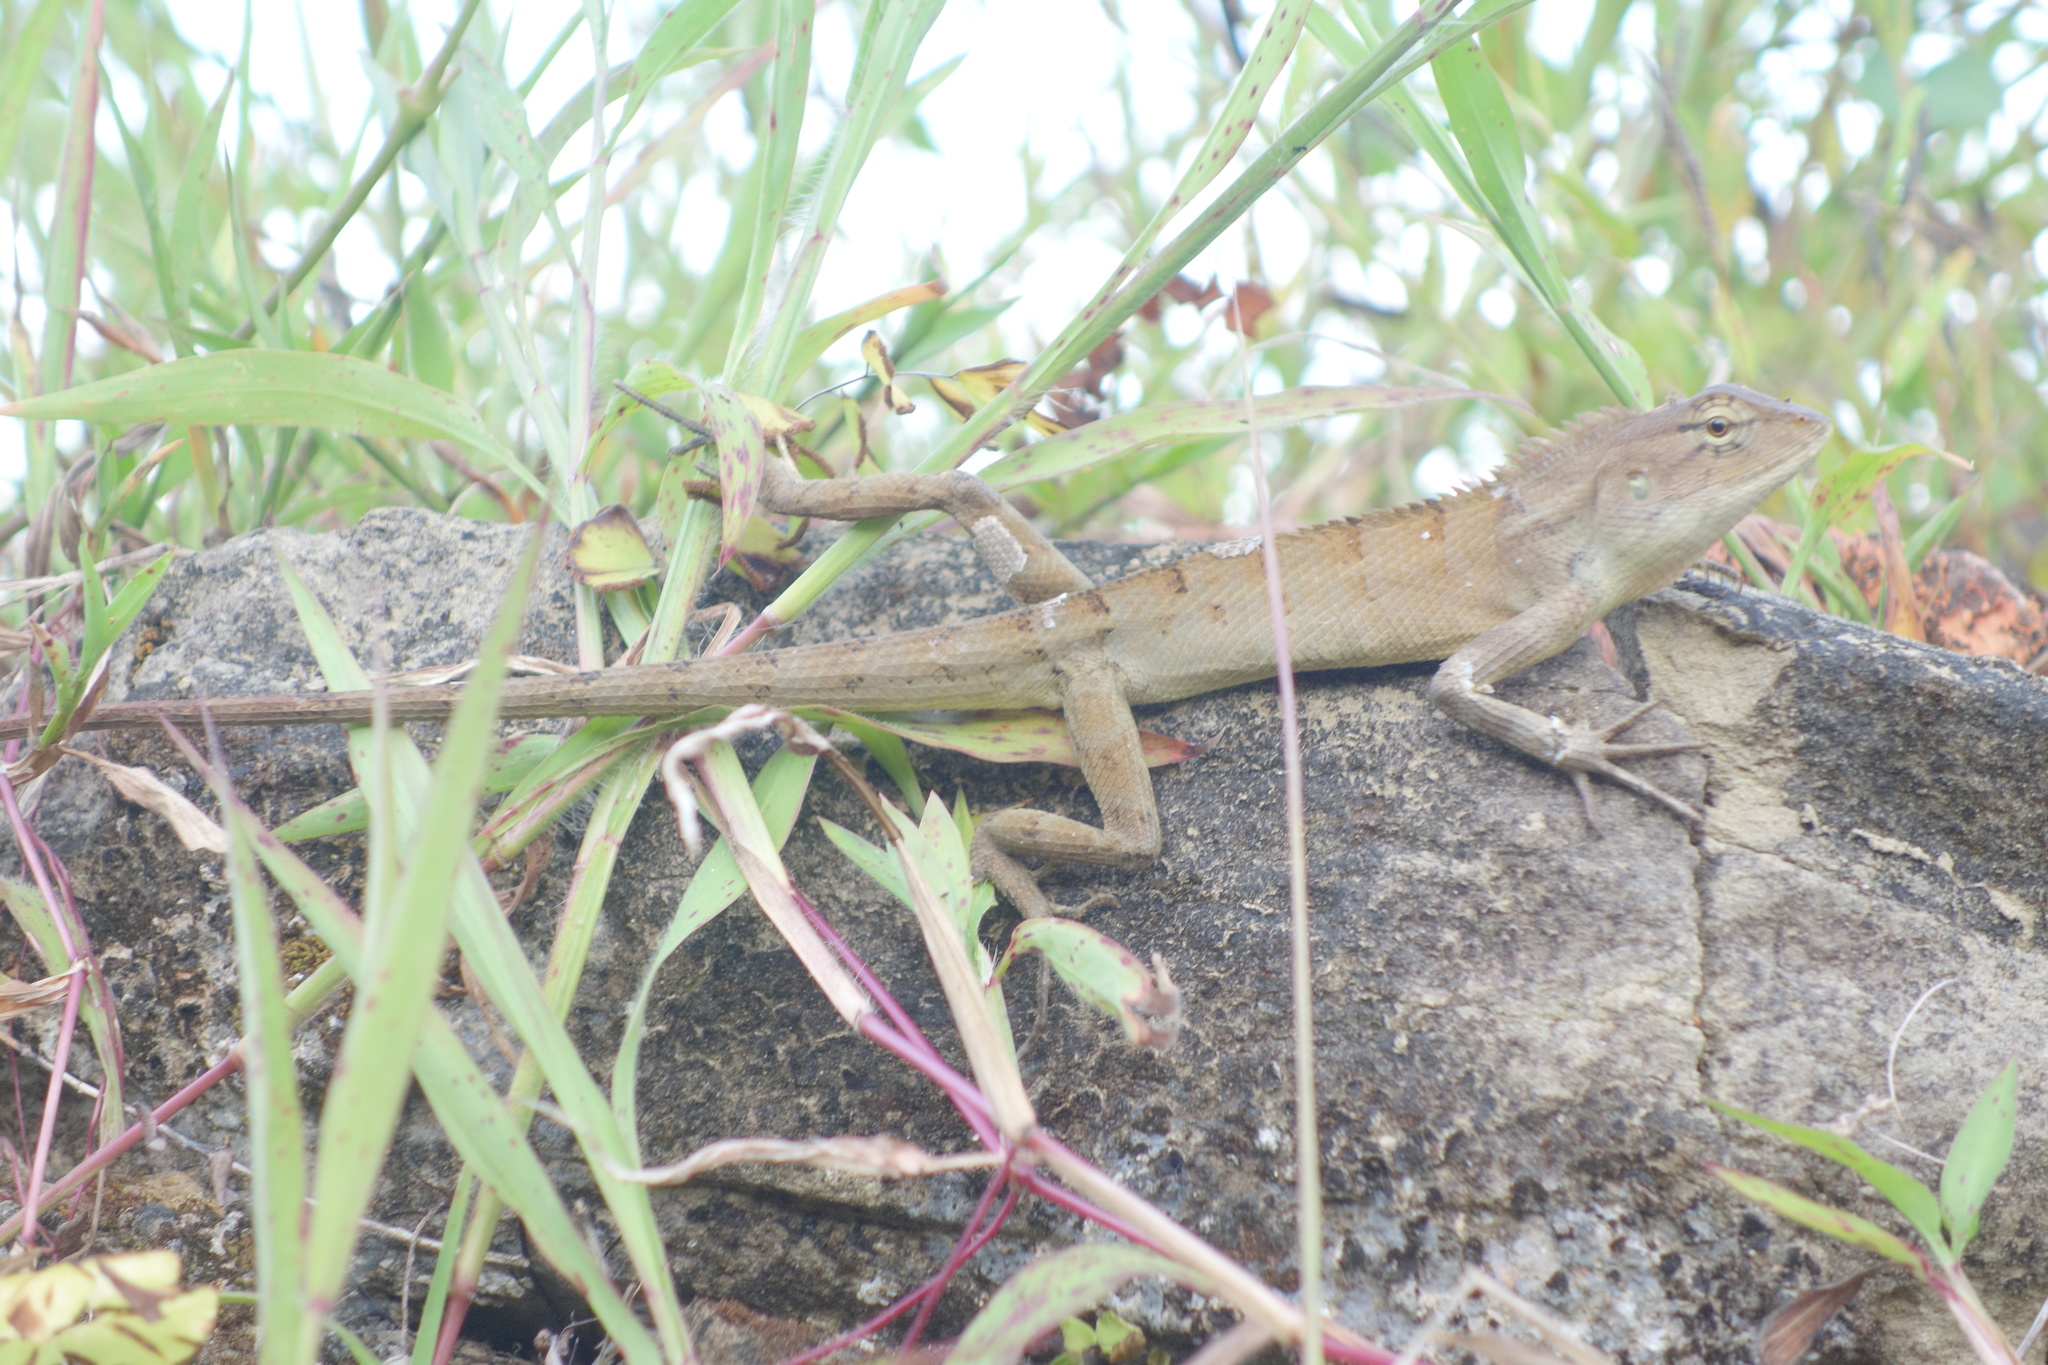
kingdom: Animalia
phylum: Chordata
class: Squamata
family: Agamidae
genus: Calotes
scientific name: Calotes versicolor
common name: Oriental garden lizard
